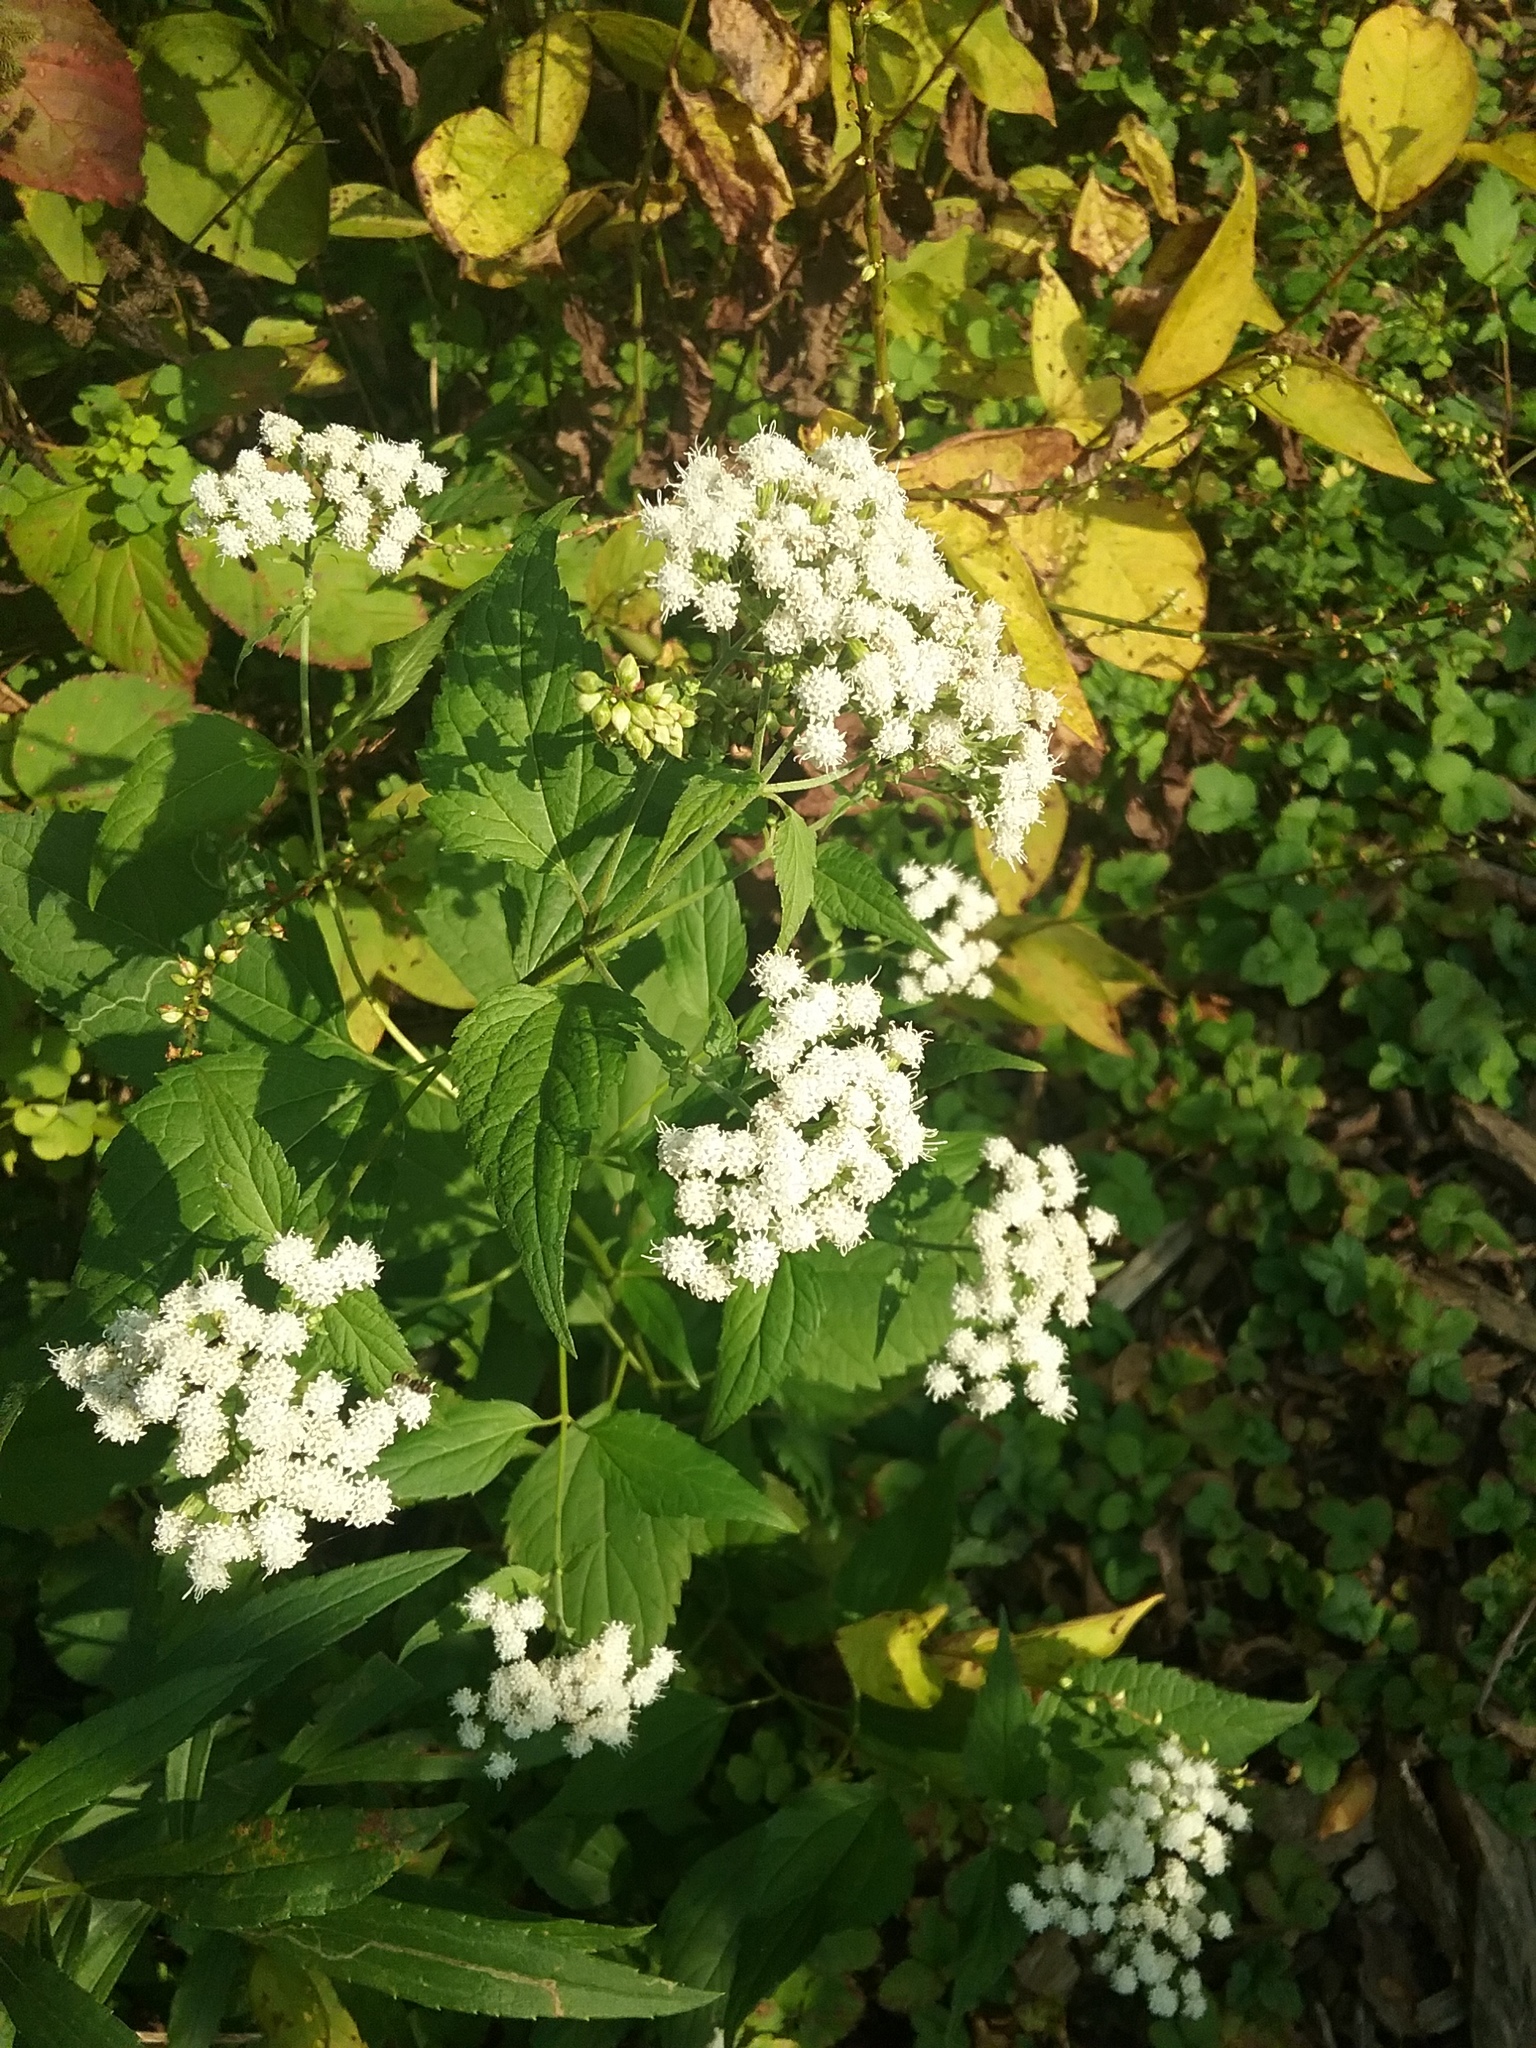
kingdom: Plantae
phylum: Tracheophyta
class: Magnoliopsida
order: Asterales
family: Asteraceae
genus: Ageratina
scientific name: Ageratina altissima
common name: White snakeroot
